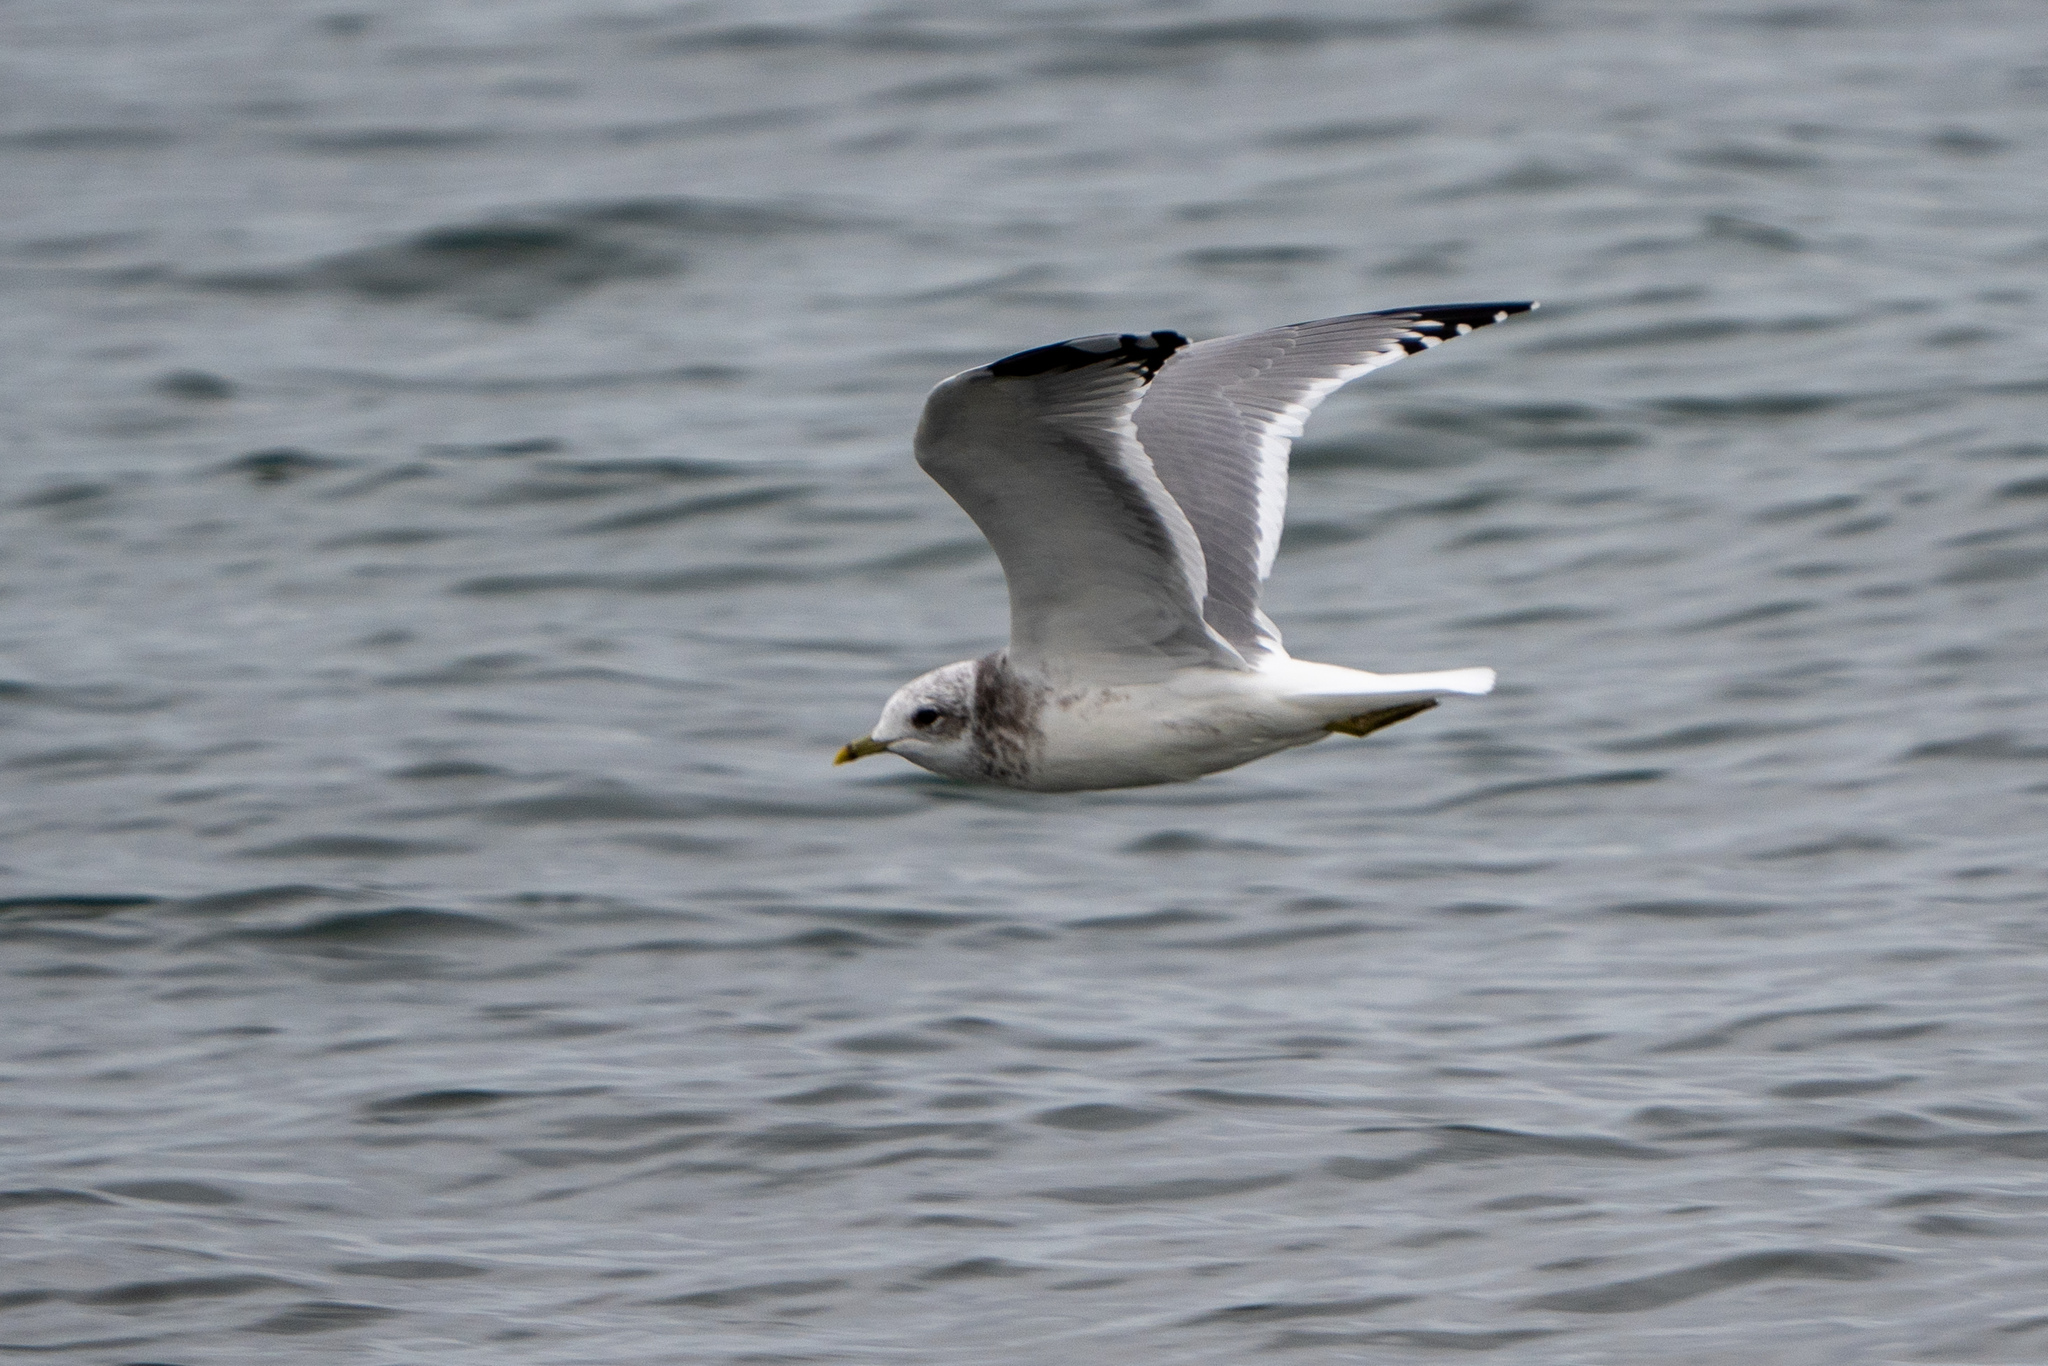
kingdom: Animalia
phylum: Chordata
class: Aves
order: Charadriiformes
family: Laridae
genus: Larus
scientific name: Larus brachyrhynchus
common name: Short-billed gull
